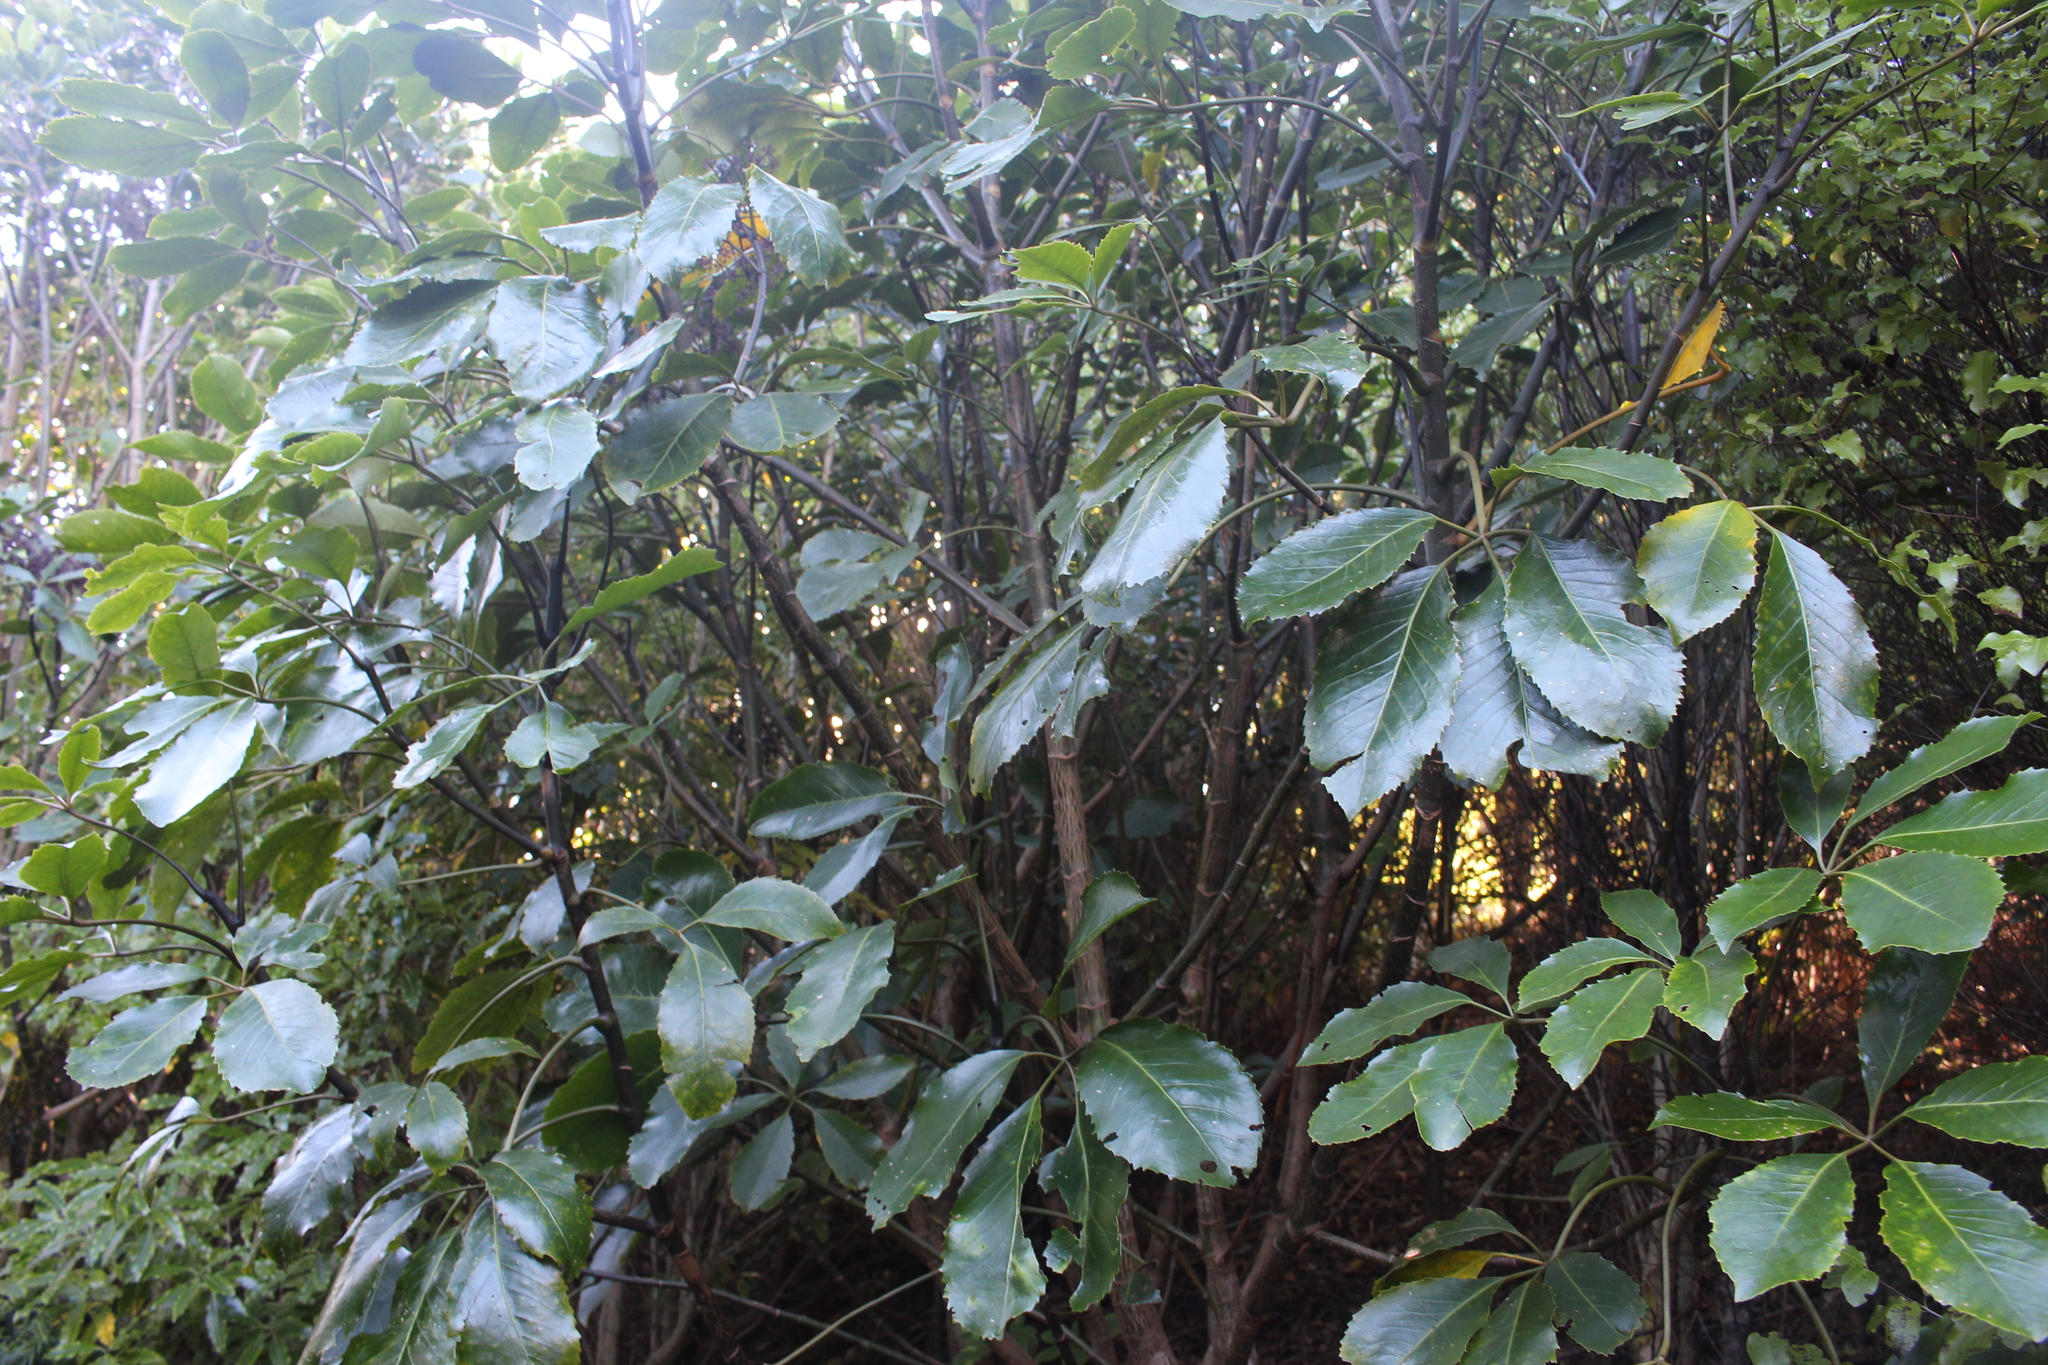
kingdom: Plantae
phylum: Tracheophyta
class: Magnoliopsida
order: Apiales
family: Araliaceae
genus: Neopanax
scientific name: Neopanax arboreus
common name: Five-fingers
